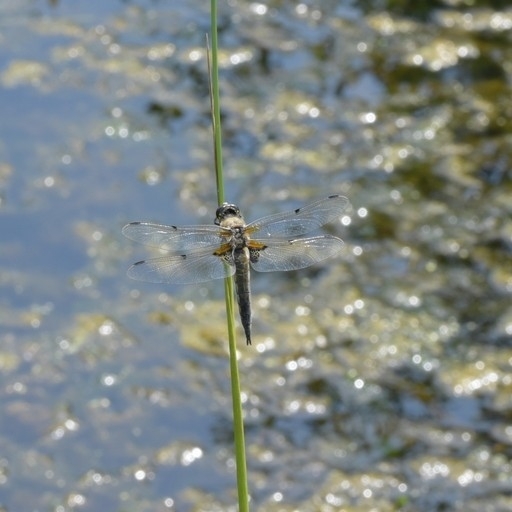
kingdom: Animalia
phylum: Arthropoda
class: Insecta
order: Odonata
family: Libellulidae
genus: Libellula
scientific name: Libellula quadrimaculata
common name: Four-spotted chaser
